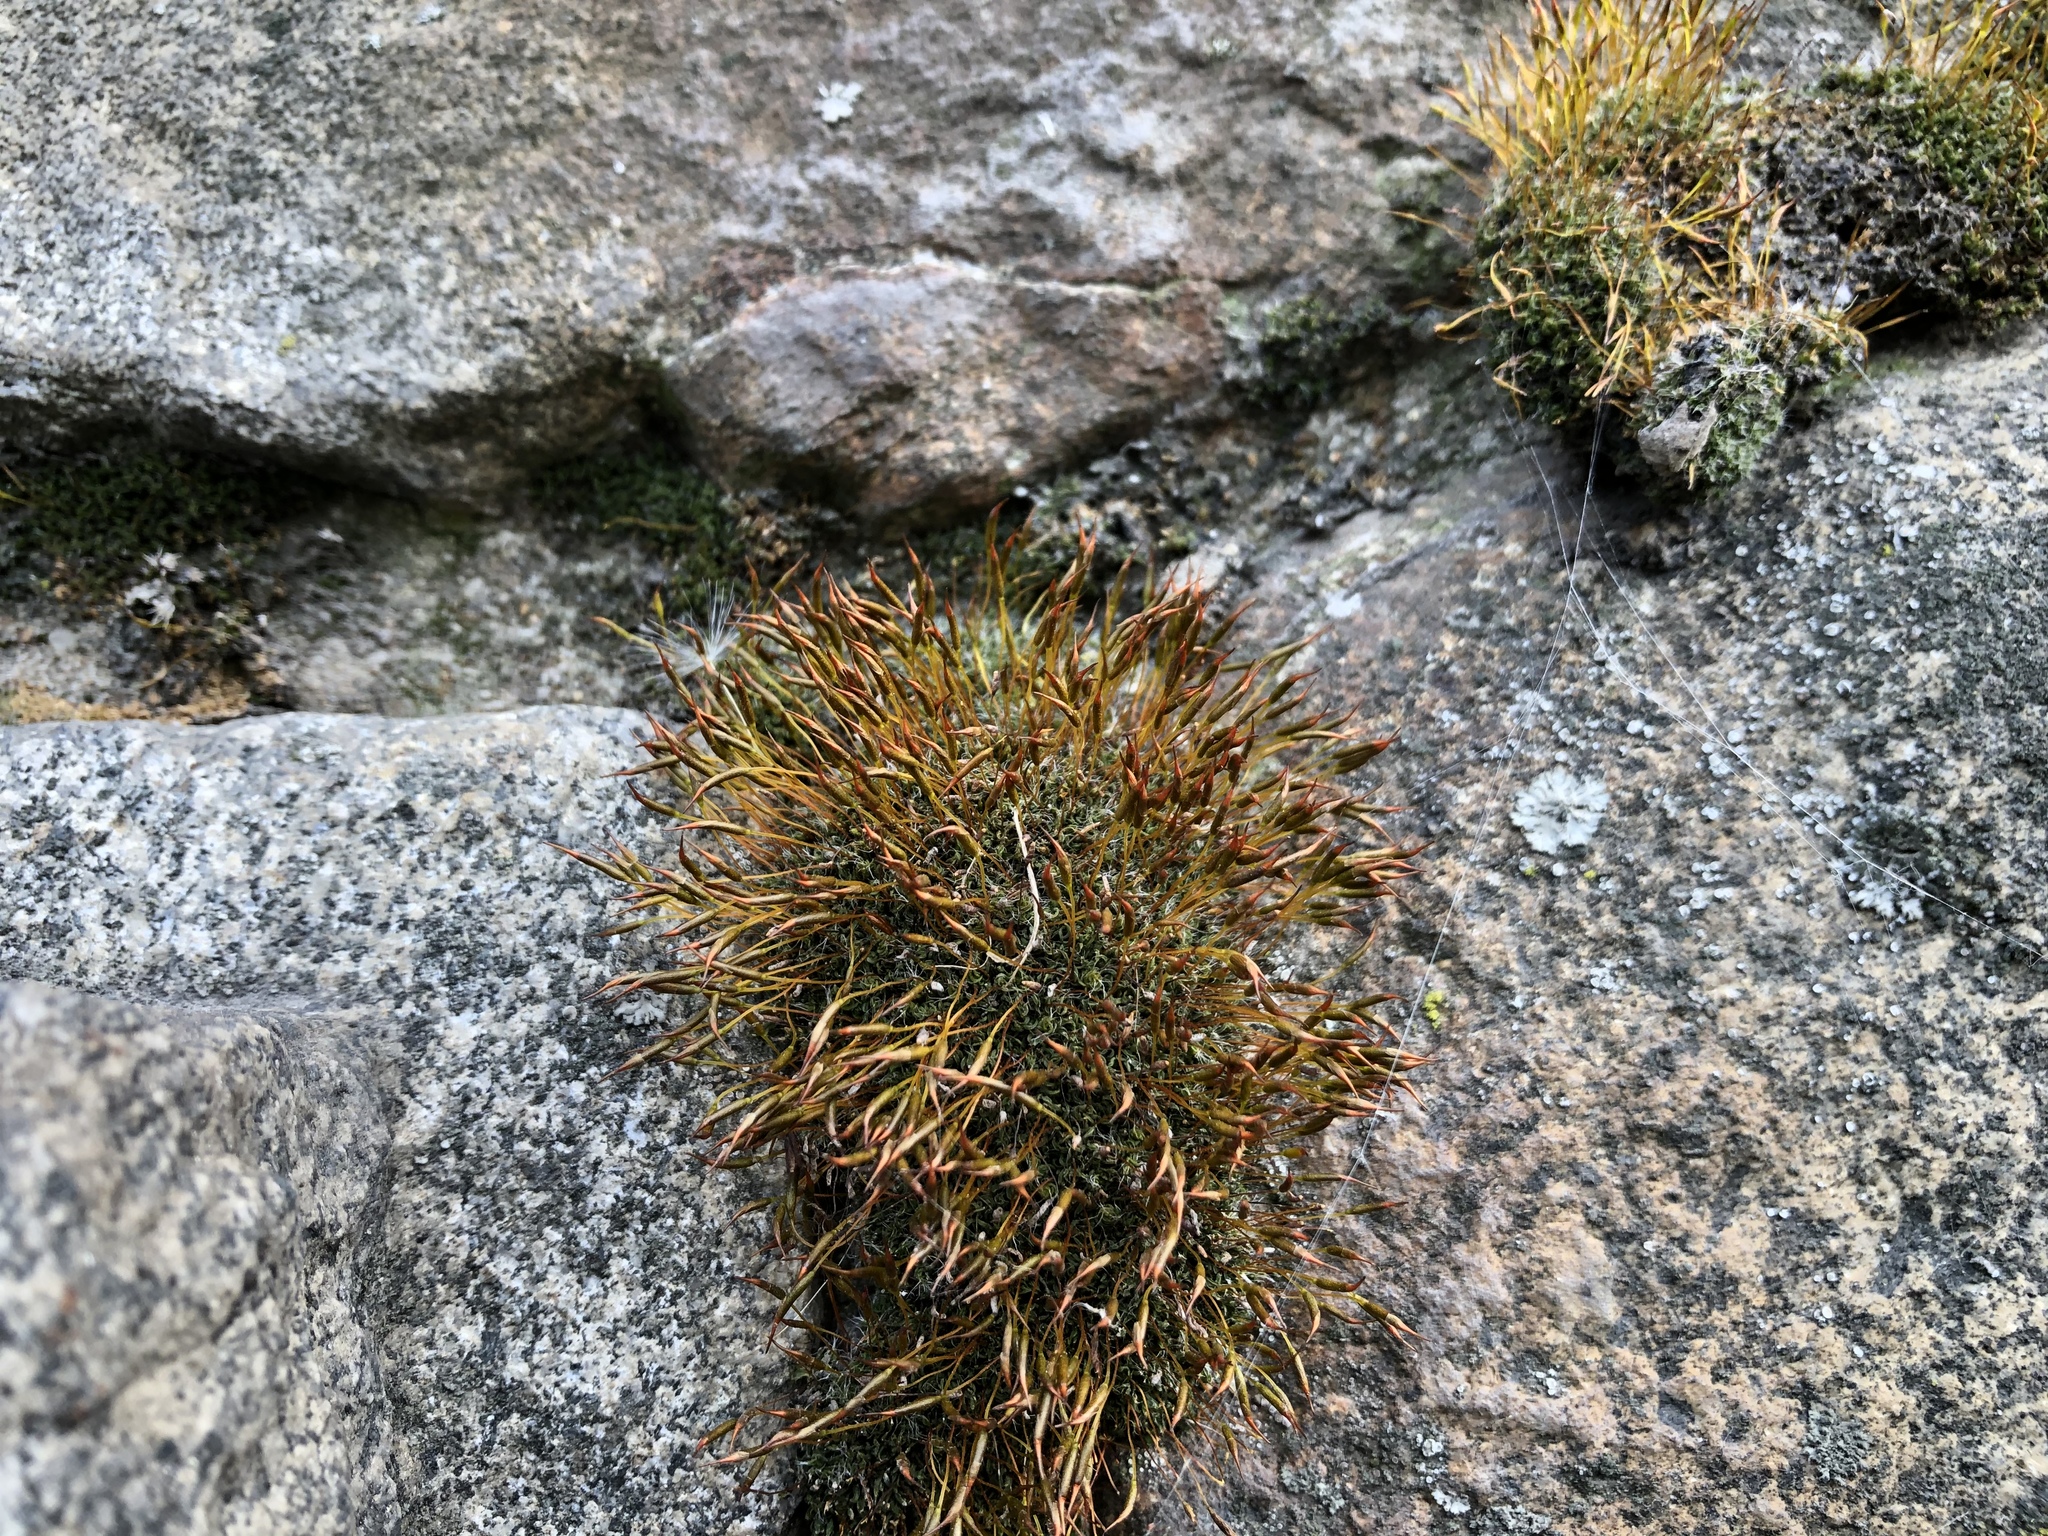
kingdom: Plantae
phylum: Bryophyta
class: Bryopsida
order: Pottiales
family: Pottiaceae
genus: Tortula
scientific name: Tortula muralis
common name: Wall screw-moss
